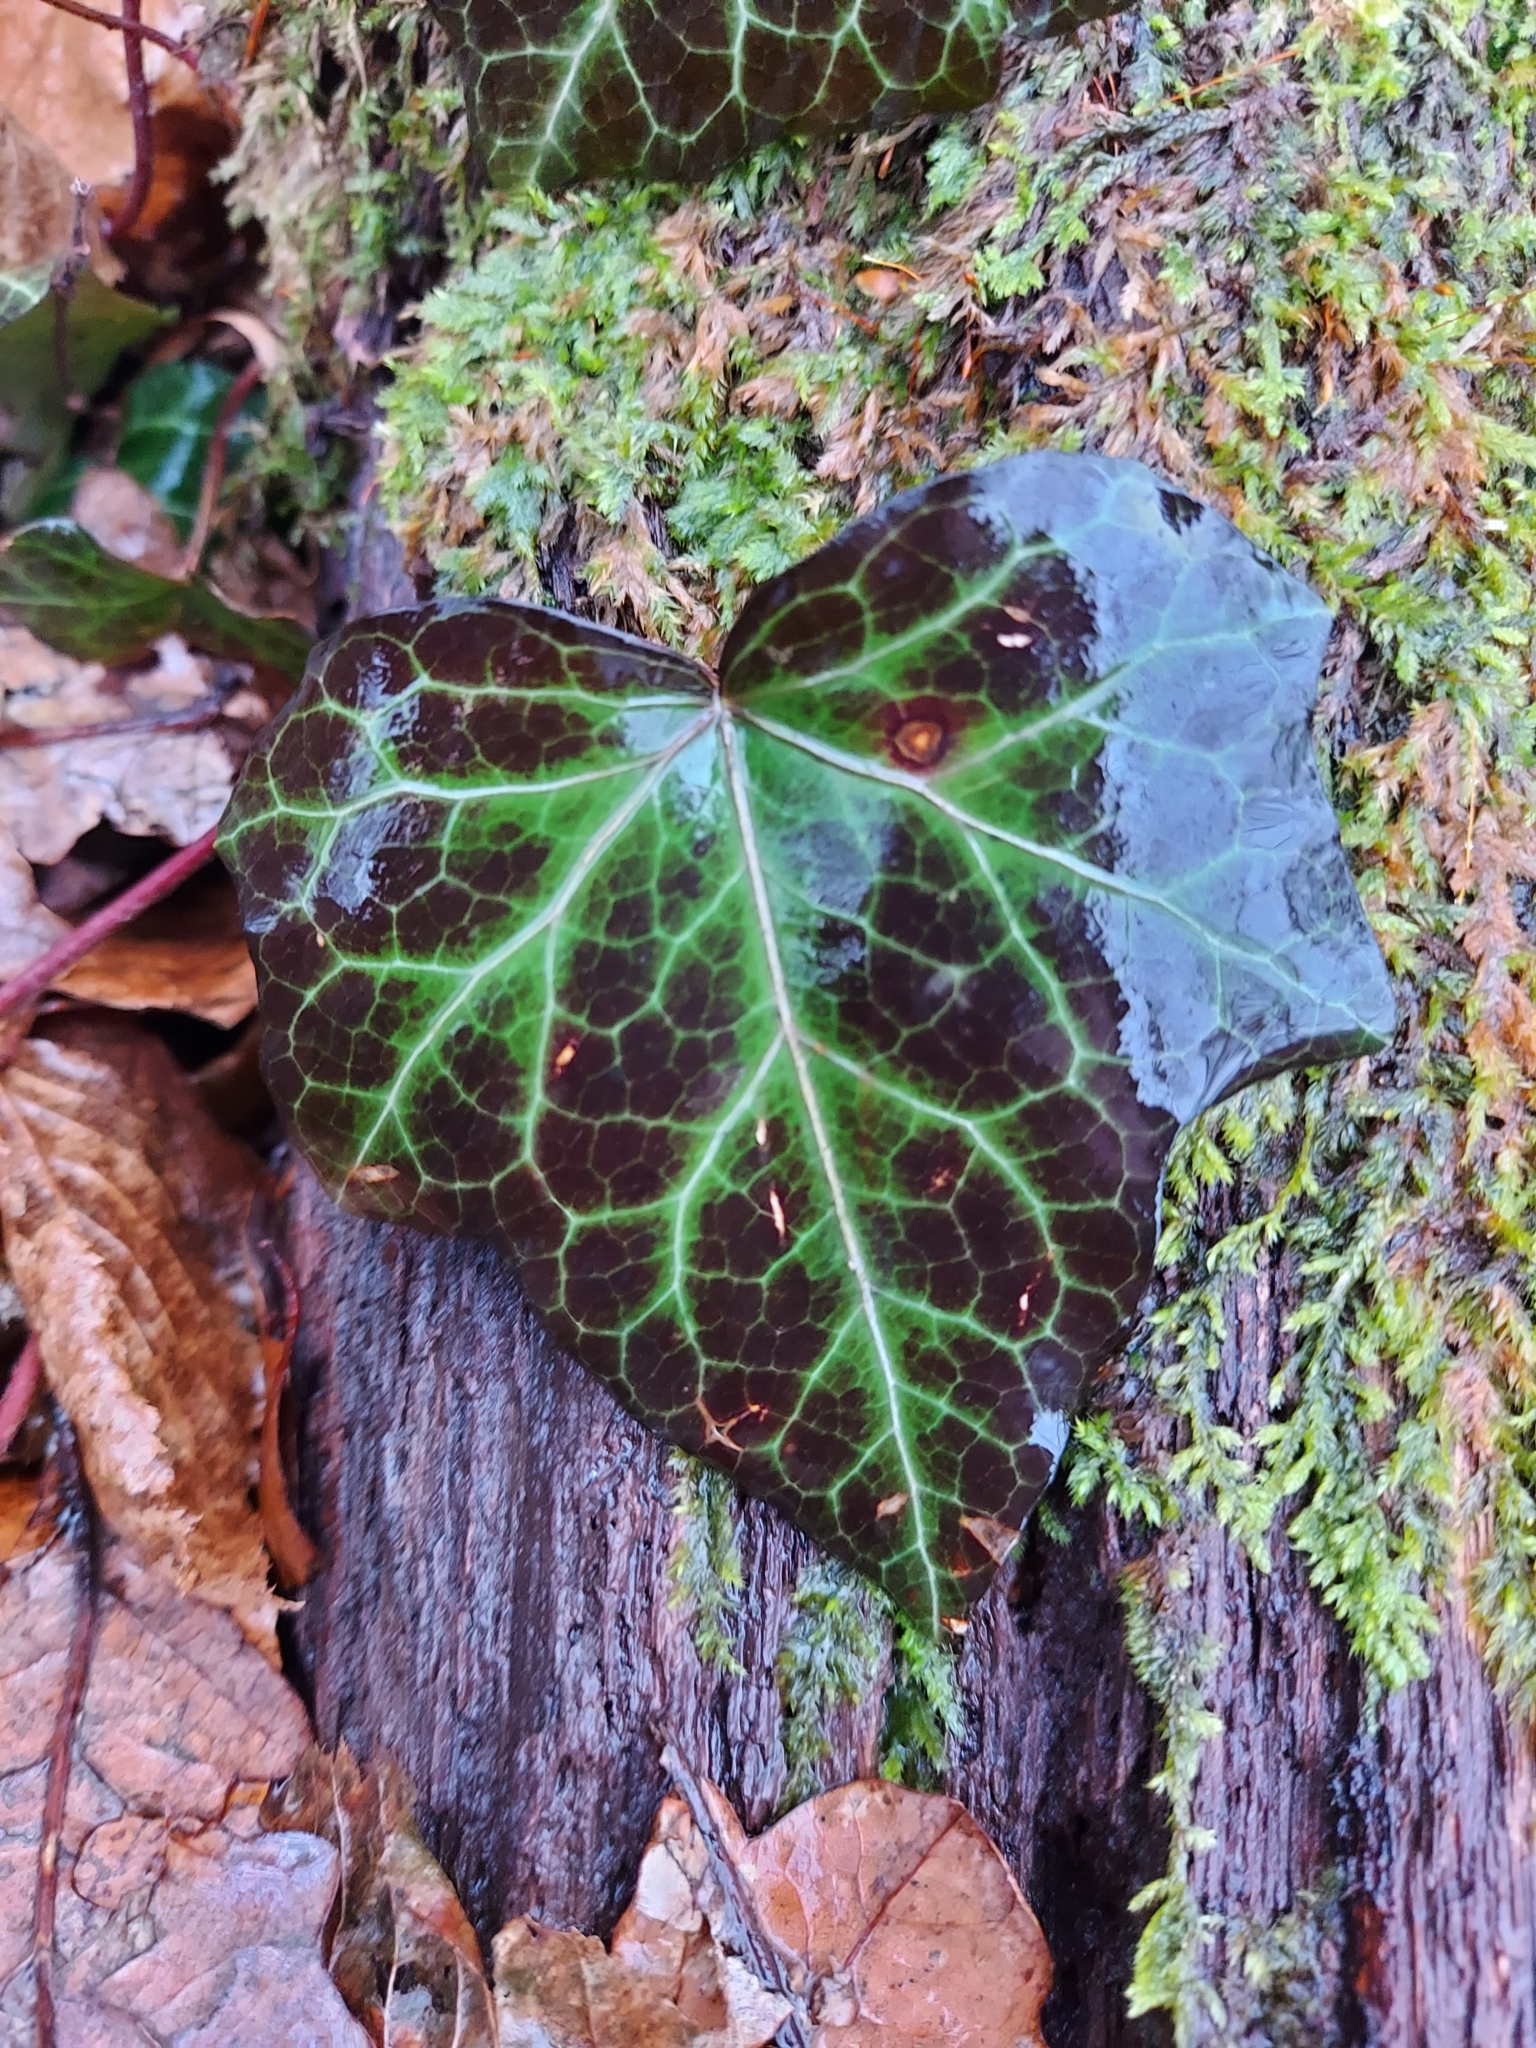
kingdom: Plantae
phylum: Tracheophyta
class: Magnoliopsida
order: Apiales
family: Araliaceae
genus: Hedera
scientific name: Hedera helix
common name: Ivy
